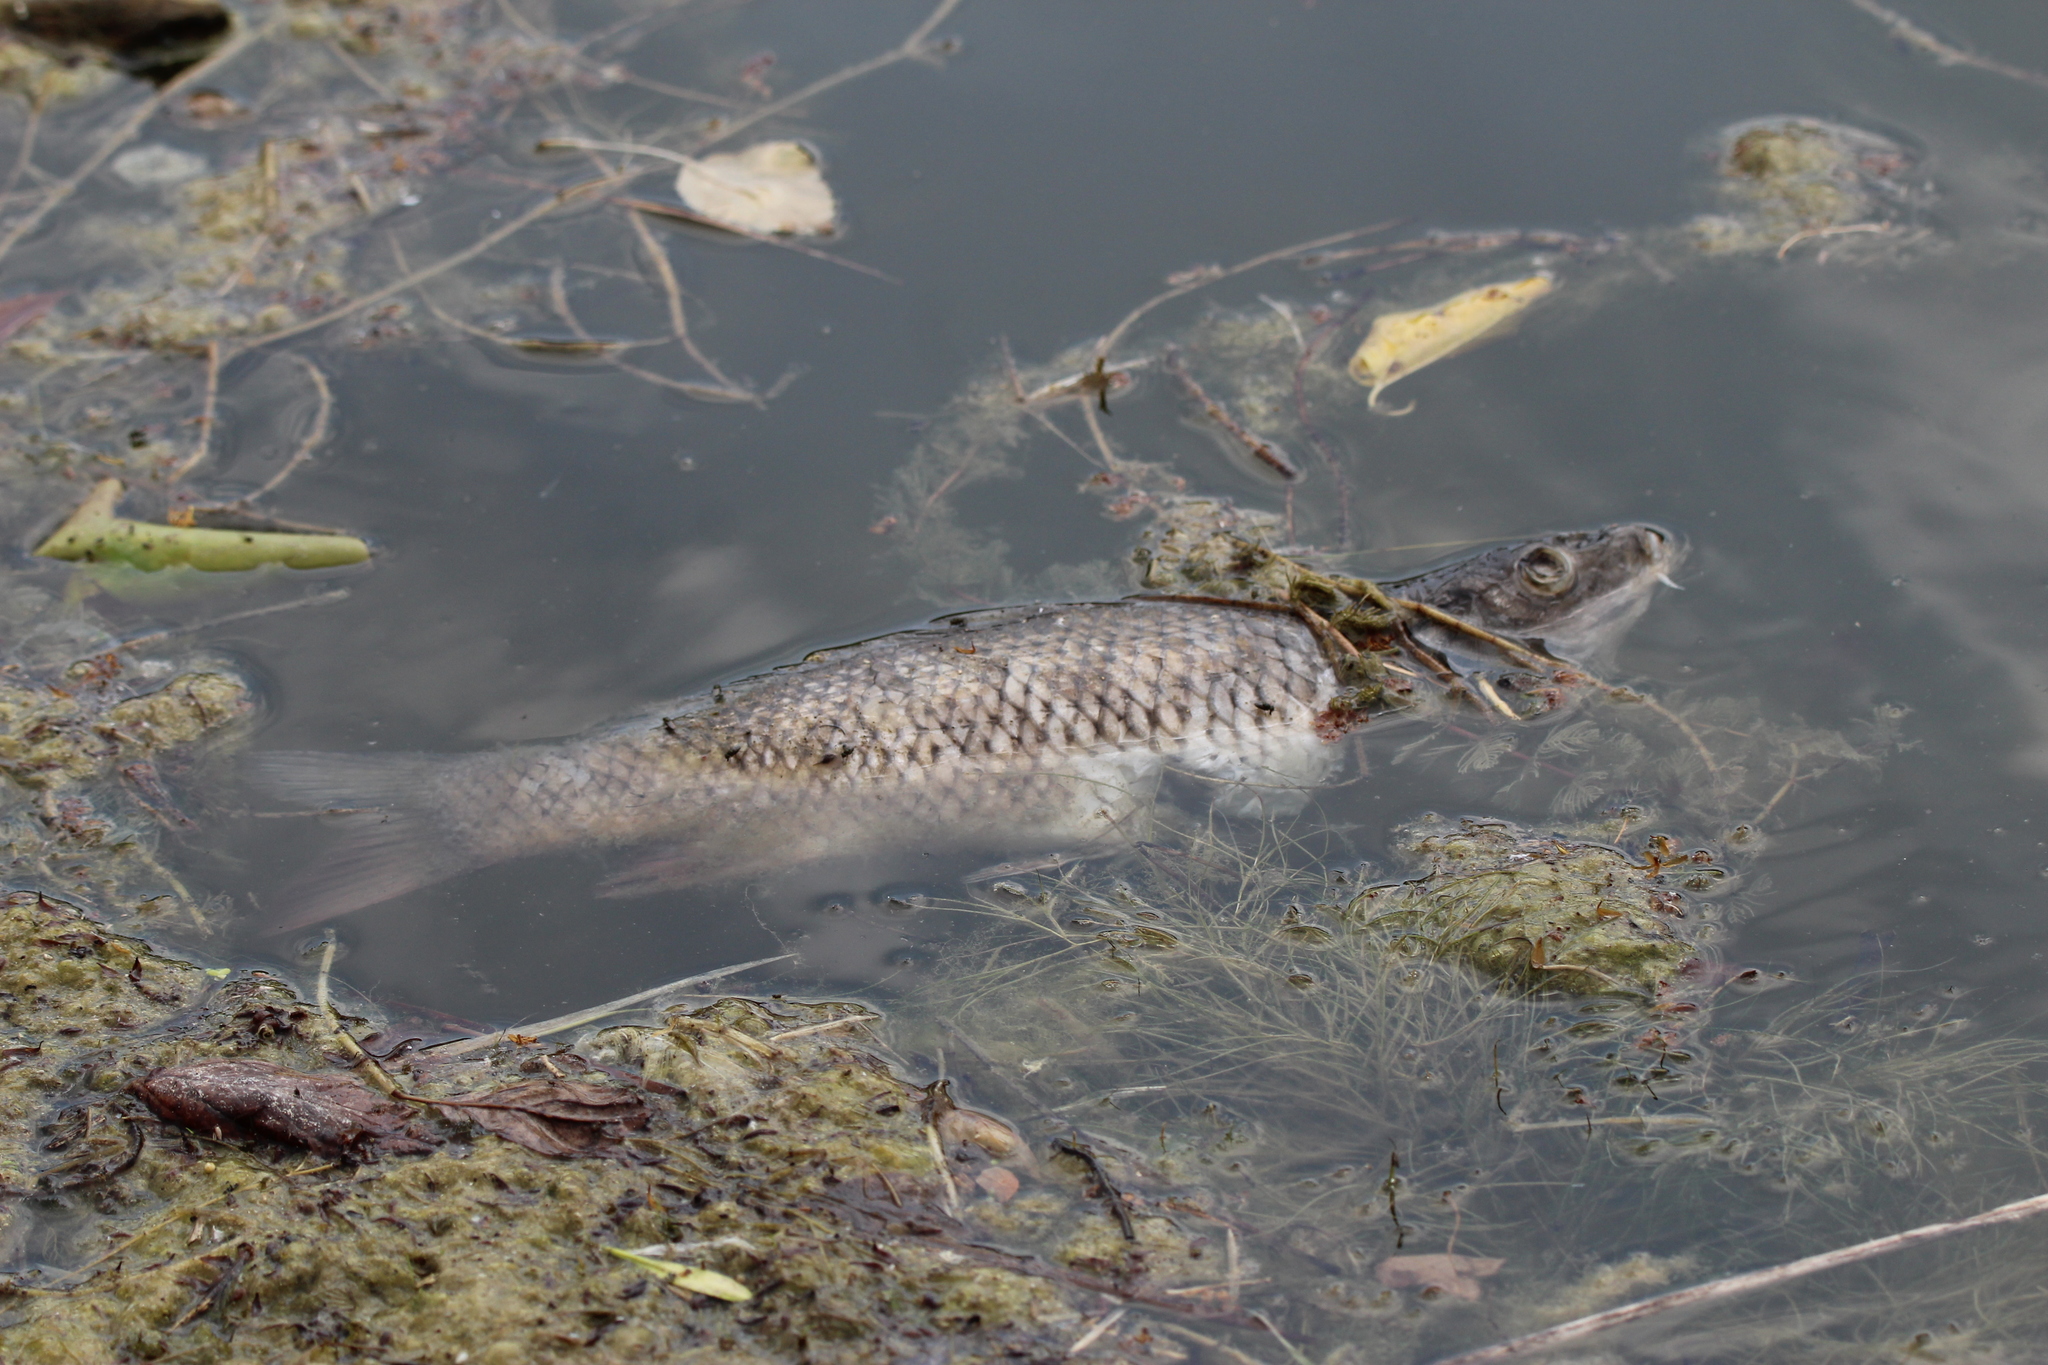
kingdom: Animalia
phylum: Chordata
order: Cypriniformes
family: Cyprinidae
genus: Cyprinus
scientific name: Cyprinus carpio
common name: Common carp
